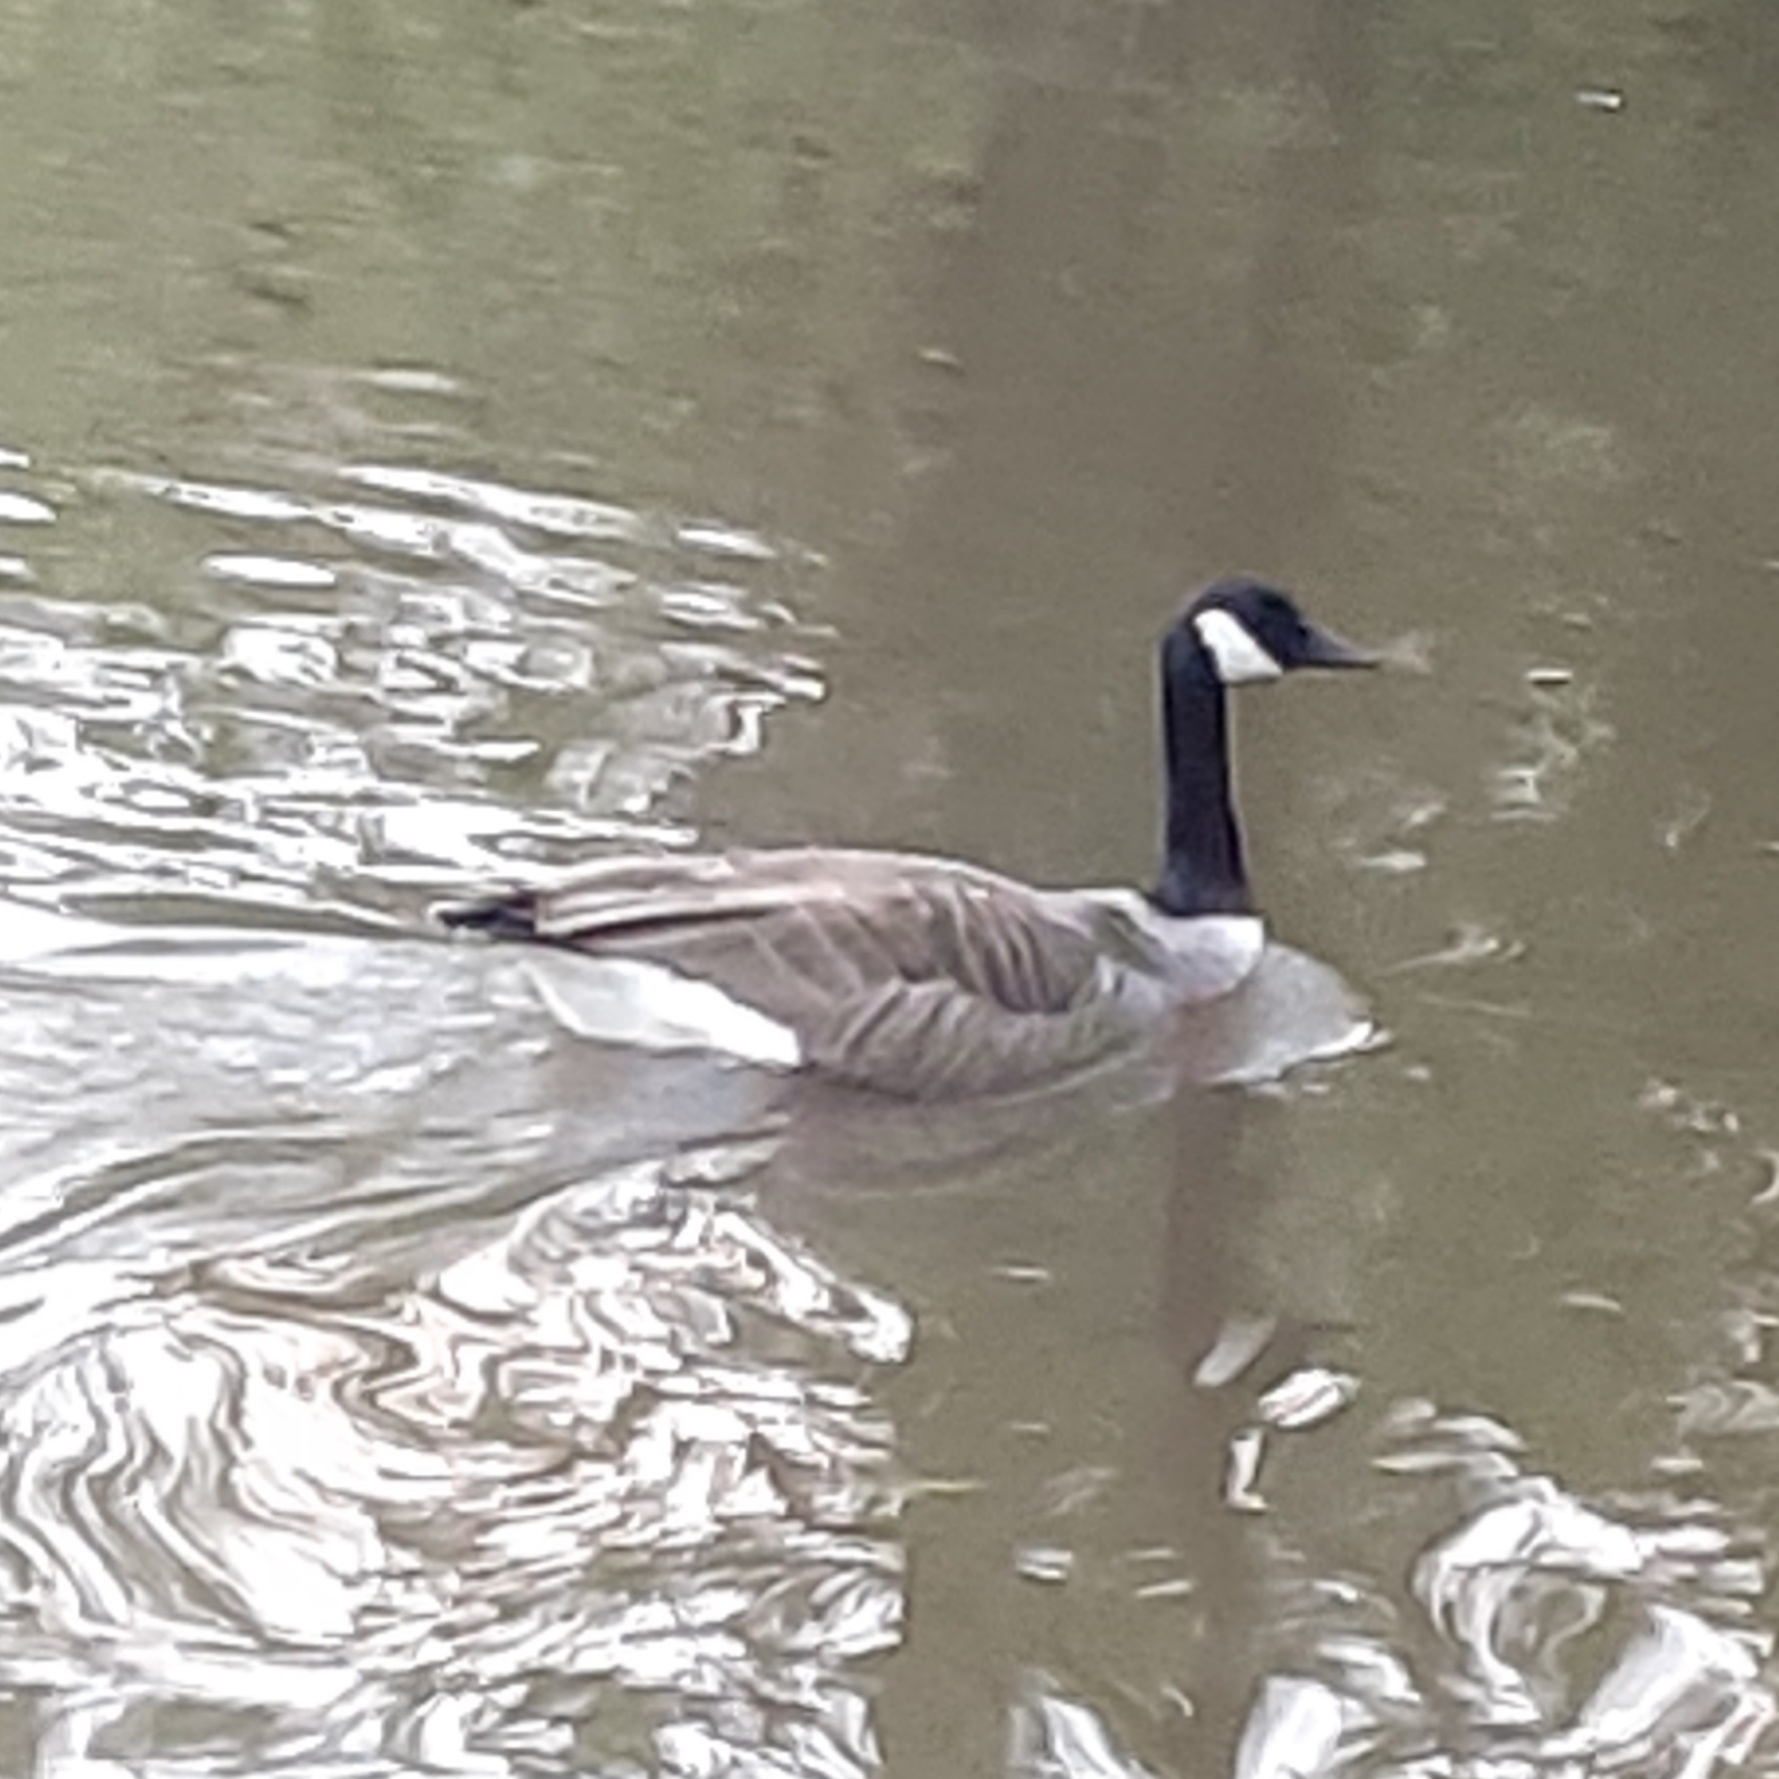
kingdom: Animalia
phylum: Chordata
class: Aves
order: Anseriformes
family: Anatidae
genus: Branta
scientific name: Branta canadensis
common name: Canada goose
